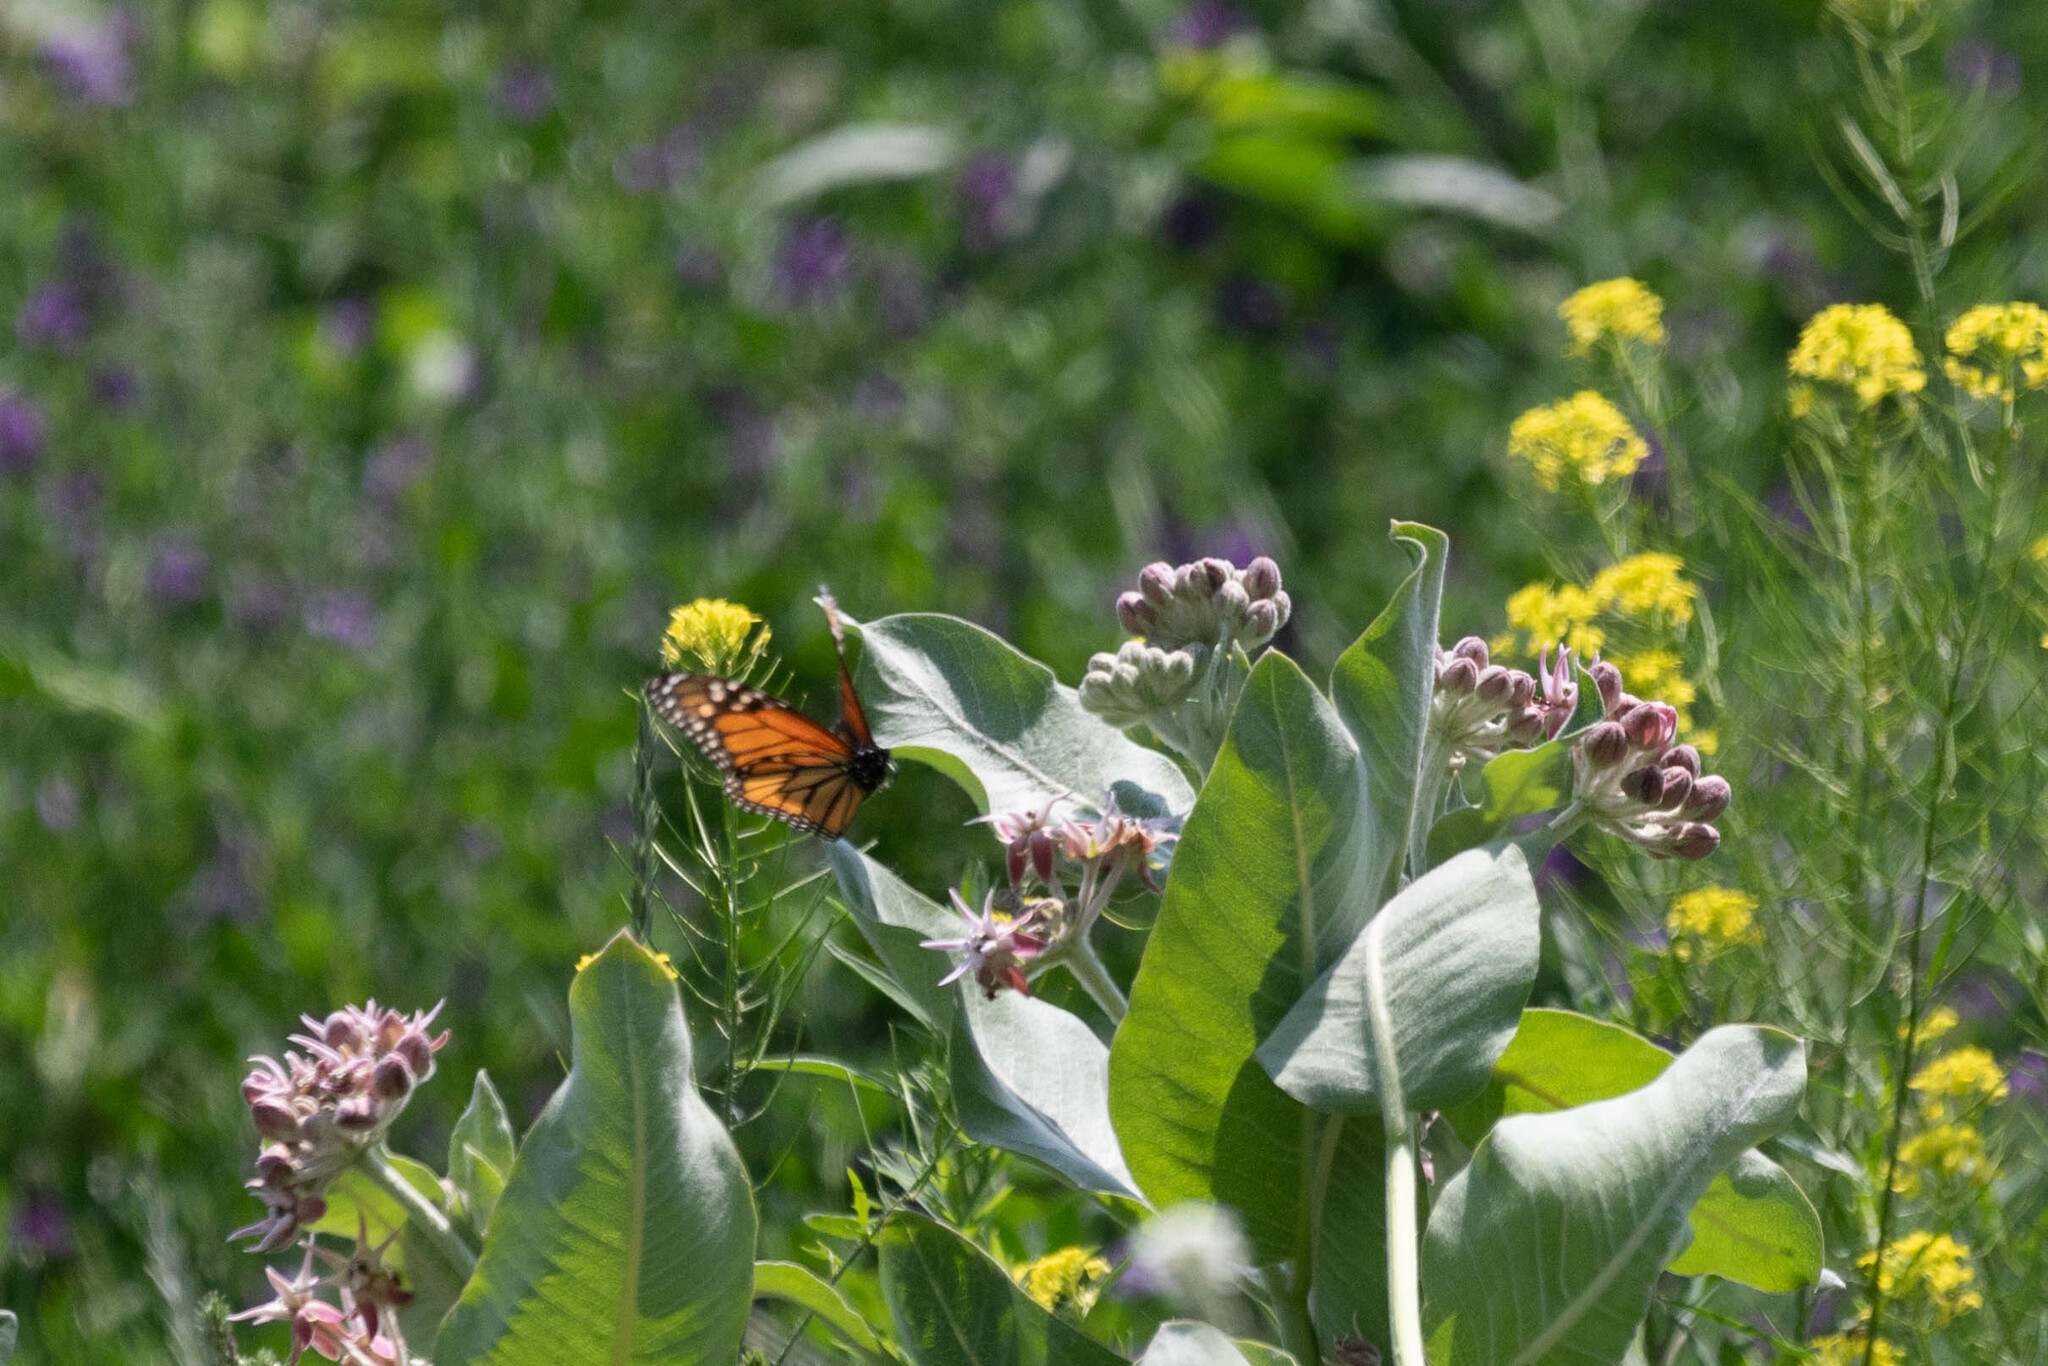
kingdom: Plantae
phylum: Tracheophyta
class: Magnoliopsida
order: Gentianales
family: Apocynaceae
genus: Asclepias
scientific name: Asclepias speciosa
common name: Showy milkweed
